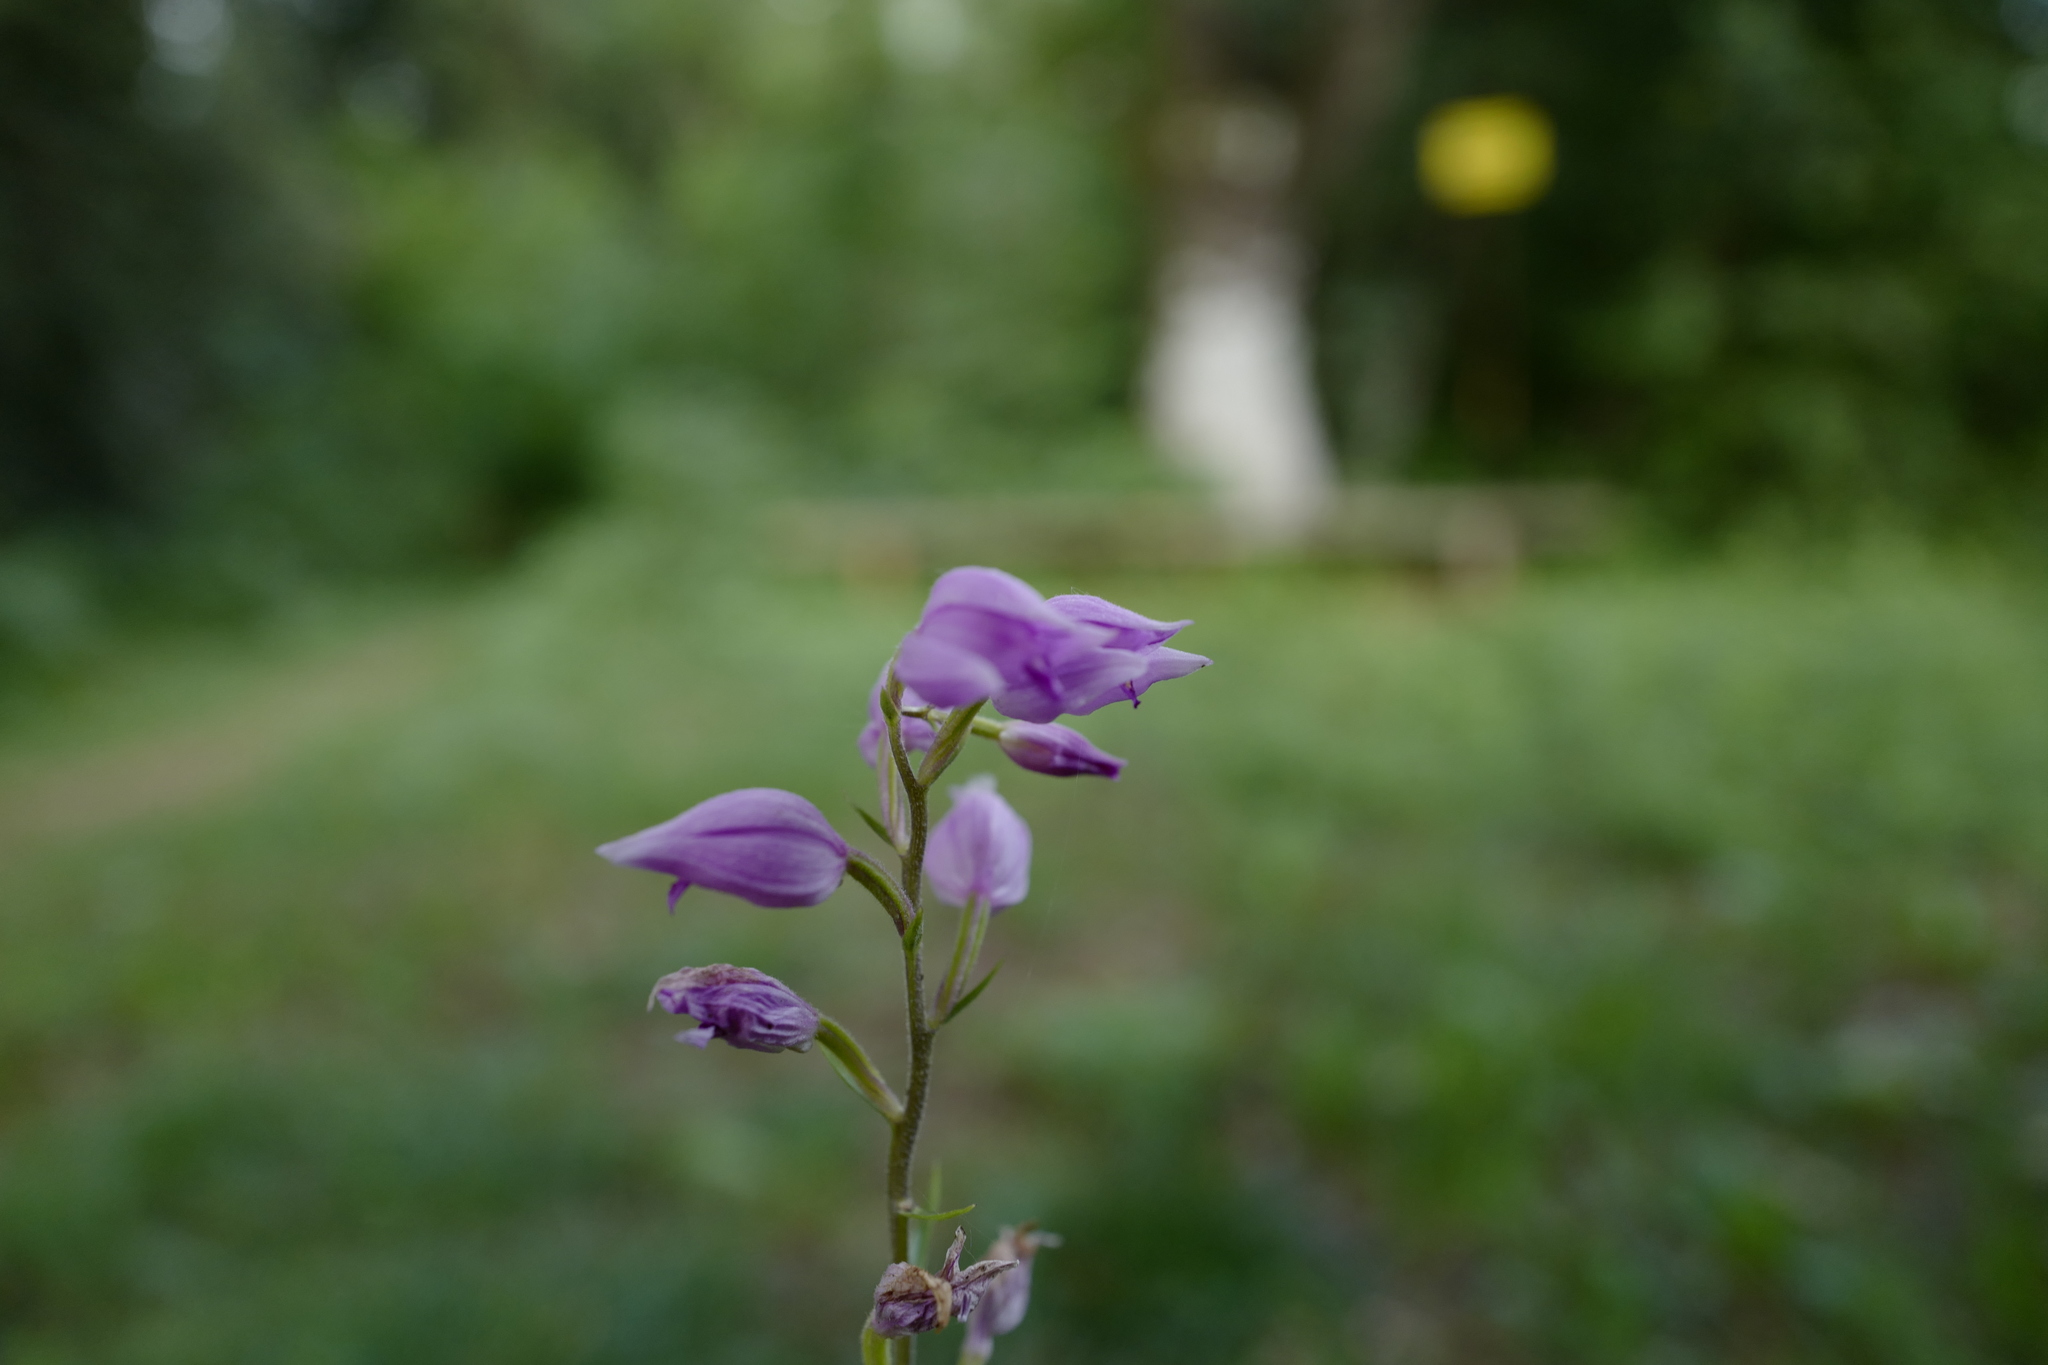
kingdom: Plantae
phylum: Tracheophyta
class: Liliopsida
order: Asparagales
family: Orchidaceae
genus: Cephalanthera
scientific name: Cephalanthera rubra
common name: Red helleborine
